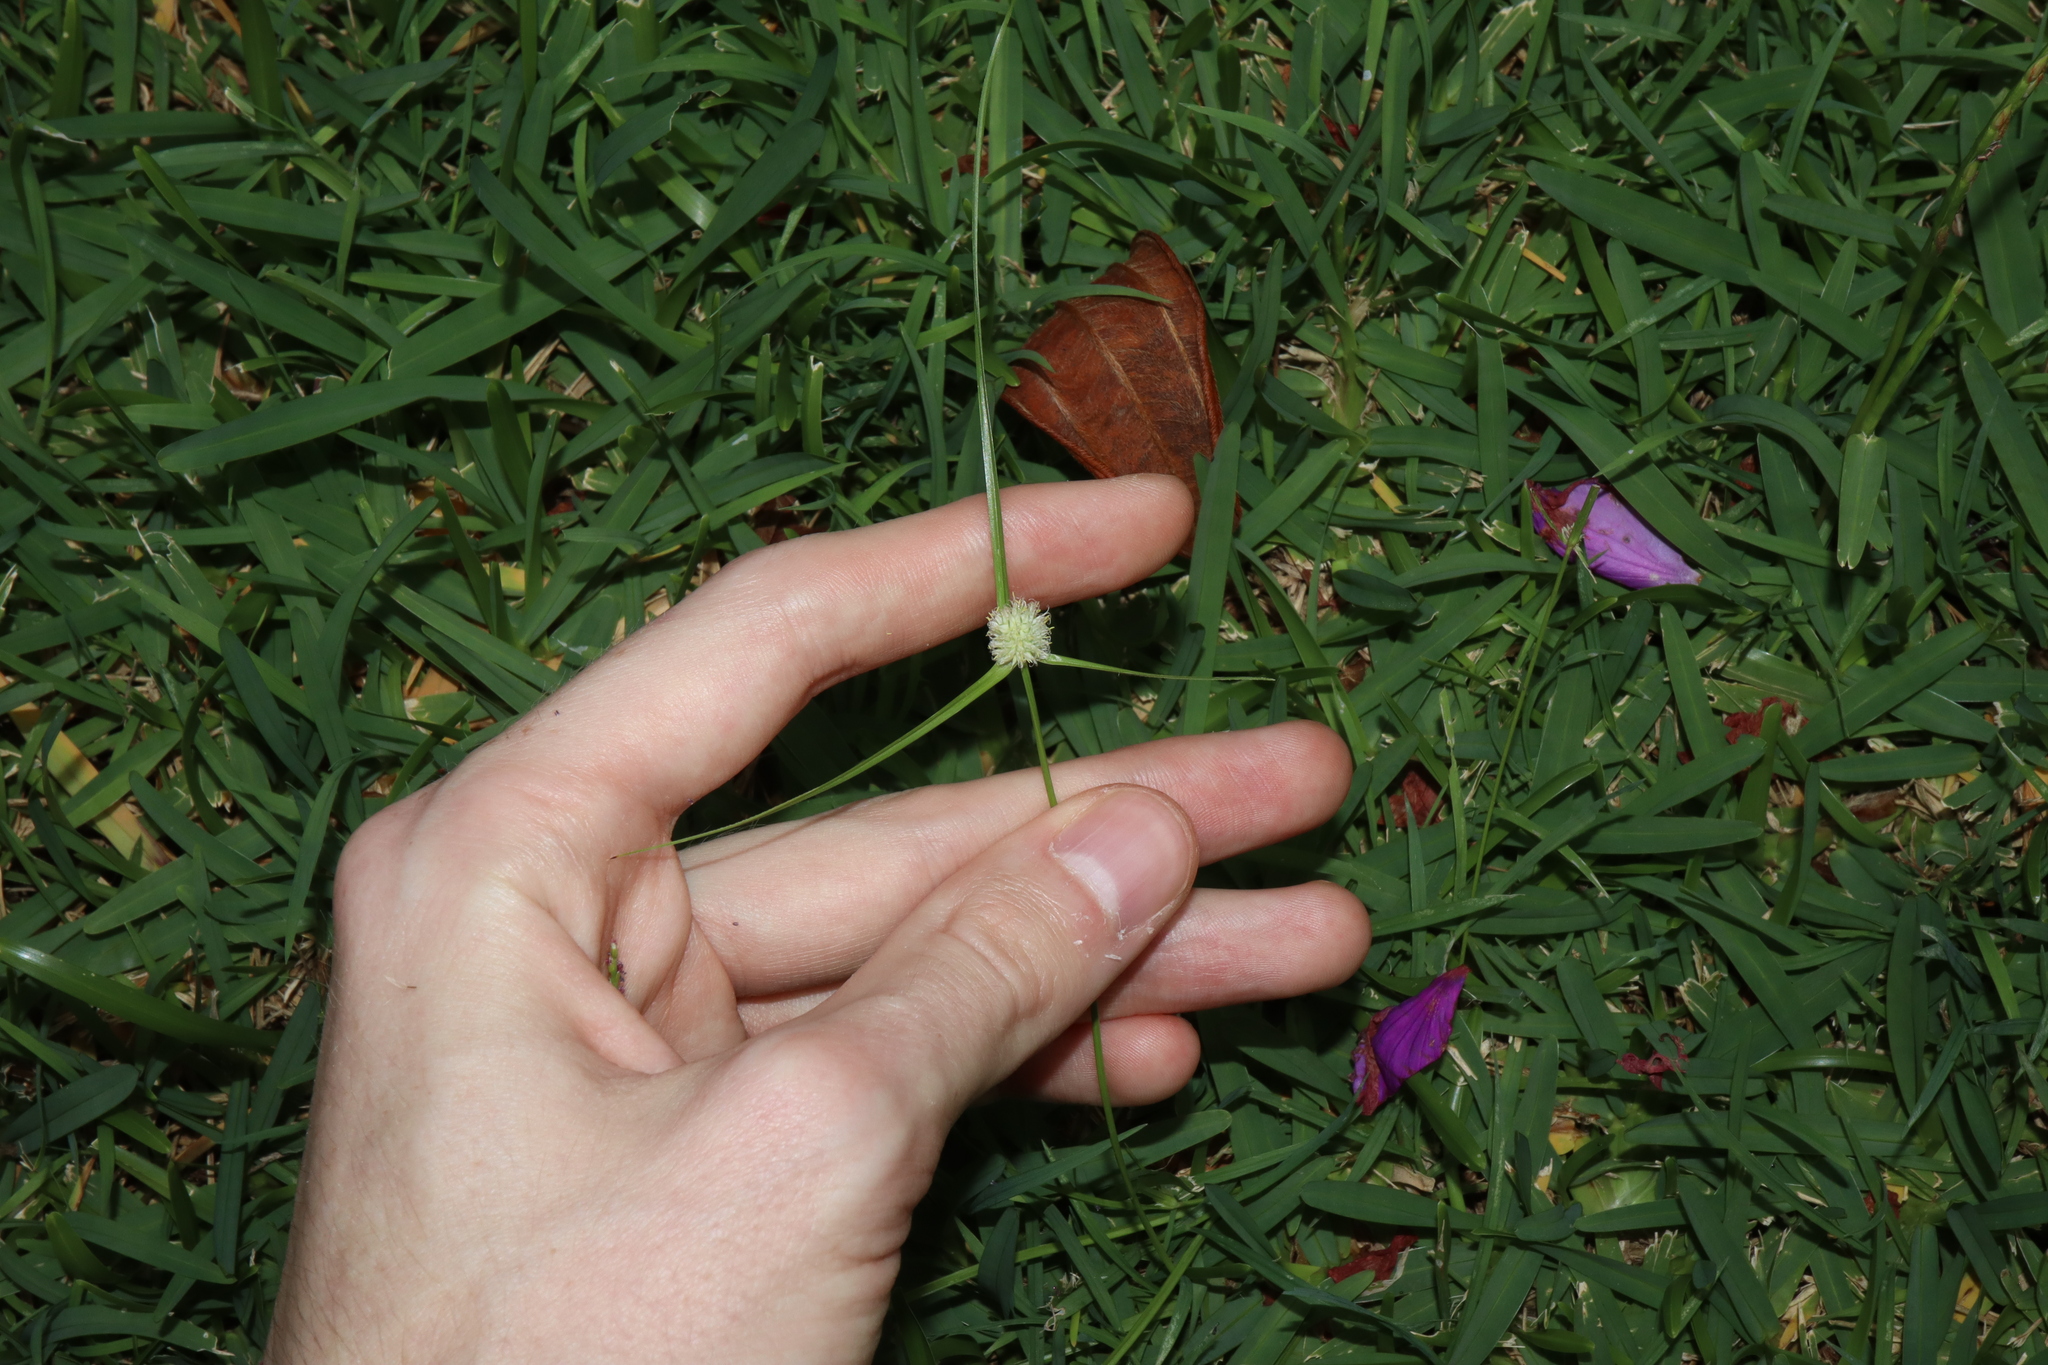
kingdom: Plantae
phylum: Tracheophyta
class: Liliopsida
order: Poales
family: Cyperaceae
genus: Cyperus
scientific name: Cyperus sesquiflorus
